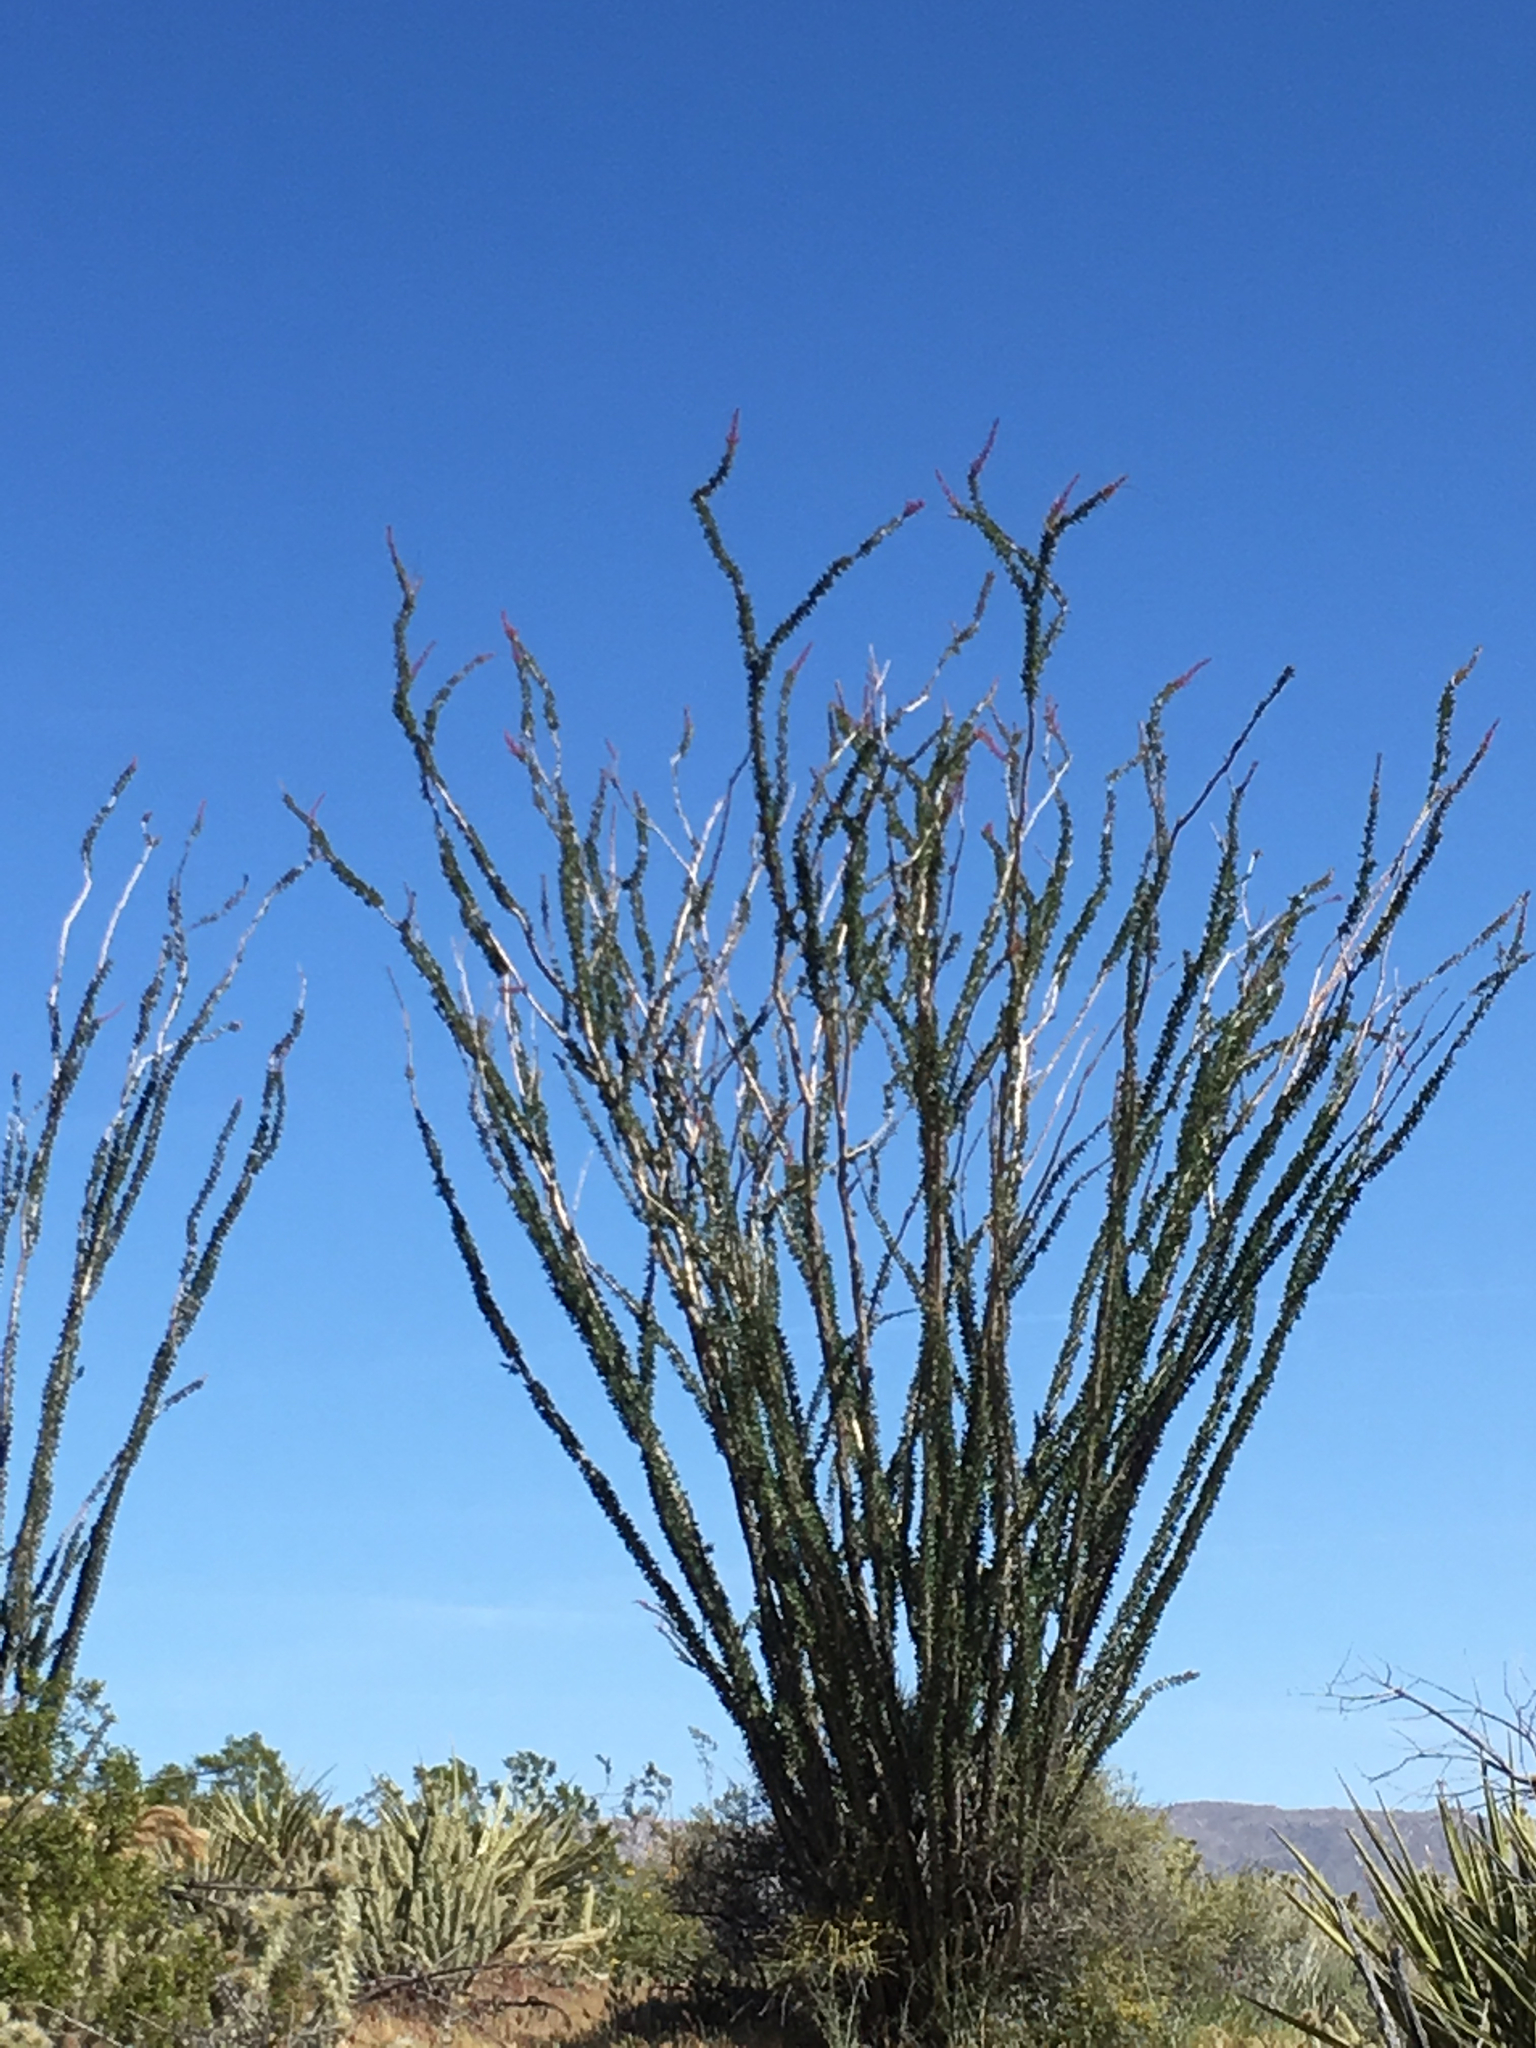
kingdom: Plantae
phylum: Tracheophyta
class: Magnoliopsida
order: Ericales
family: Fouquieriaceae
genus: Fouquieria
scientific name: Fouquieria splendens
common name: Vine-cactus
